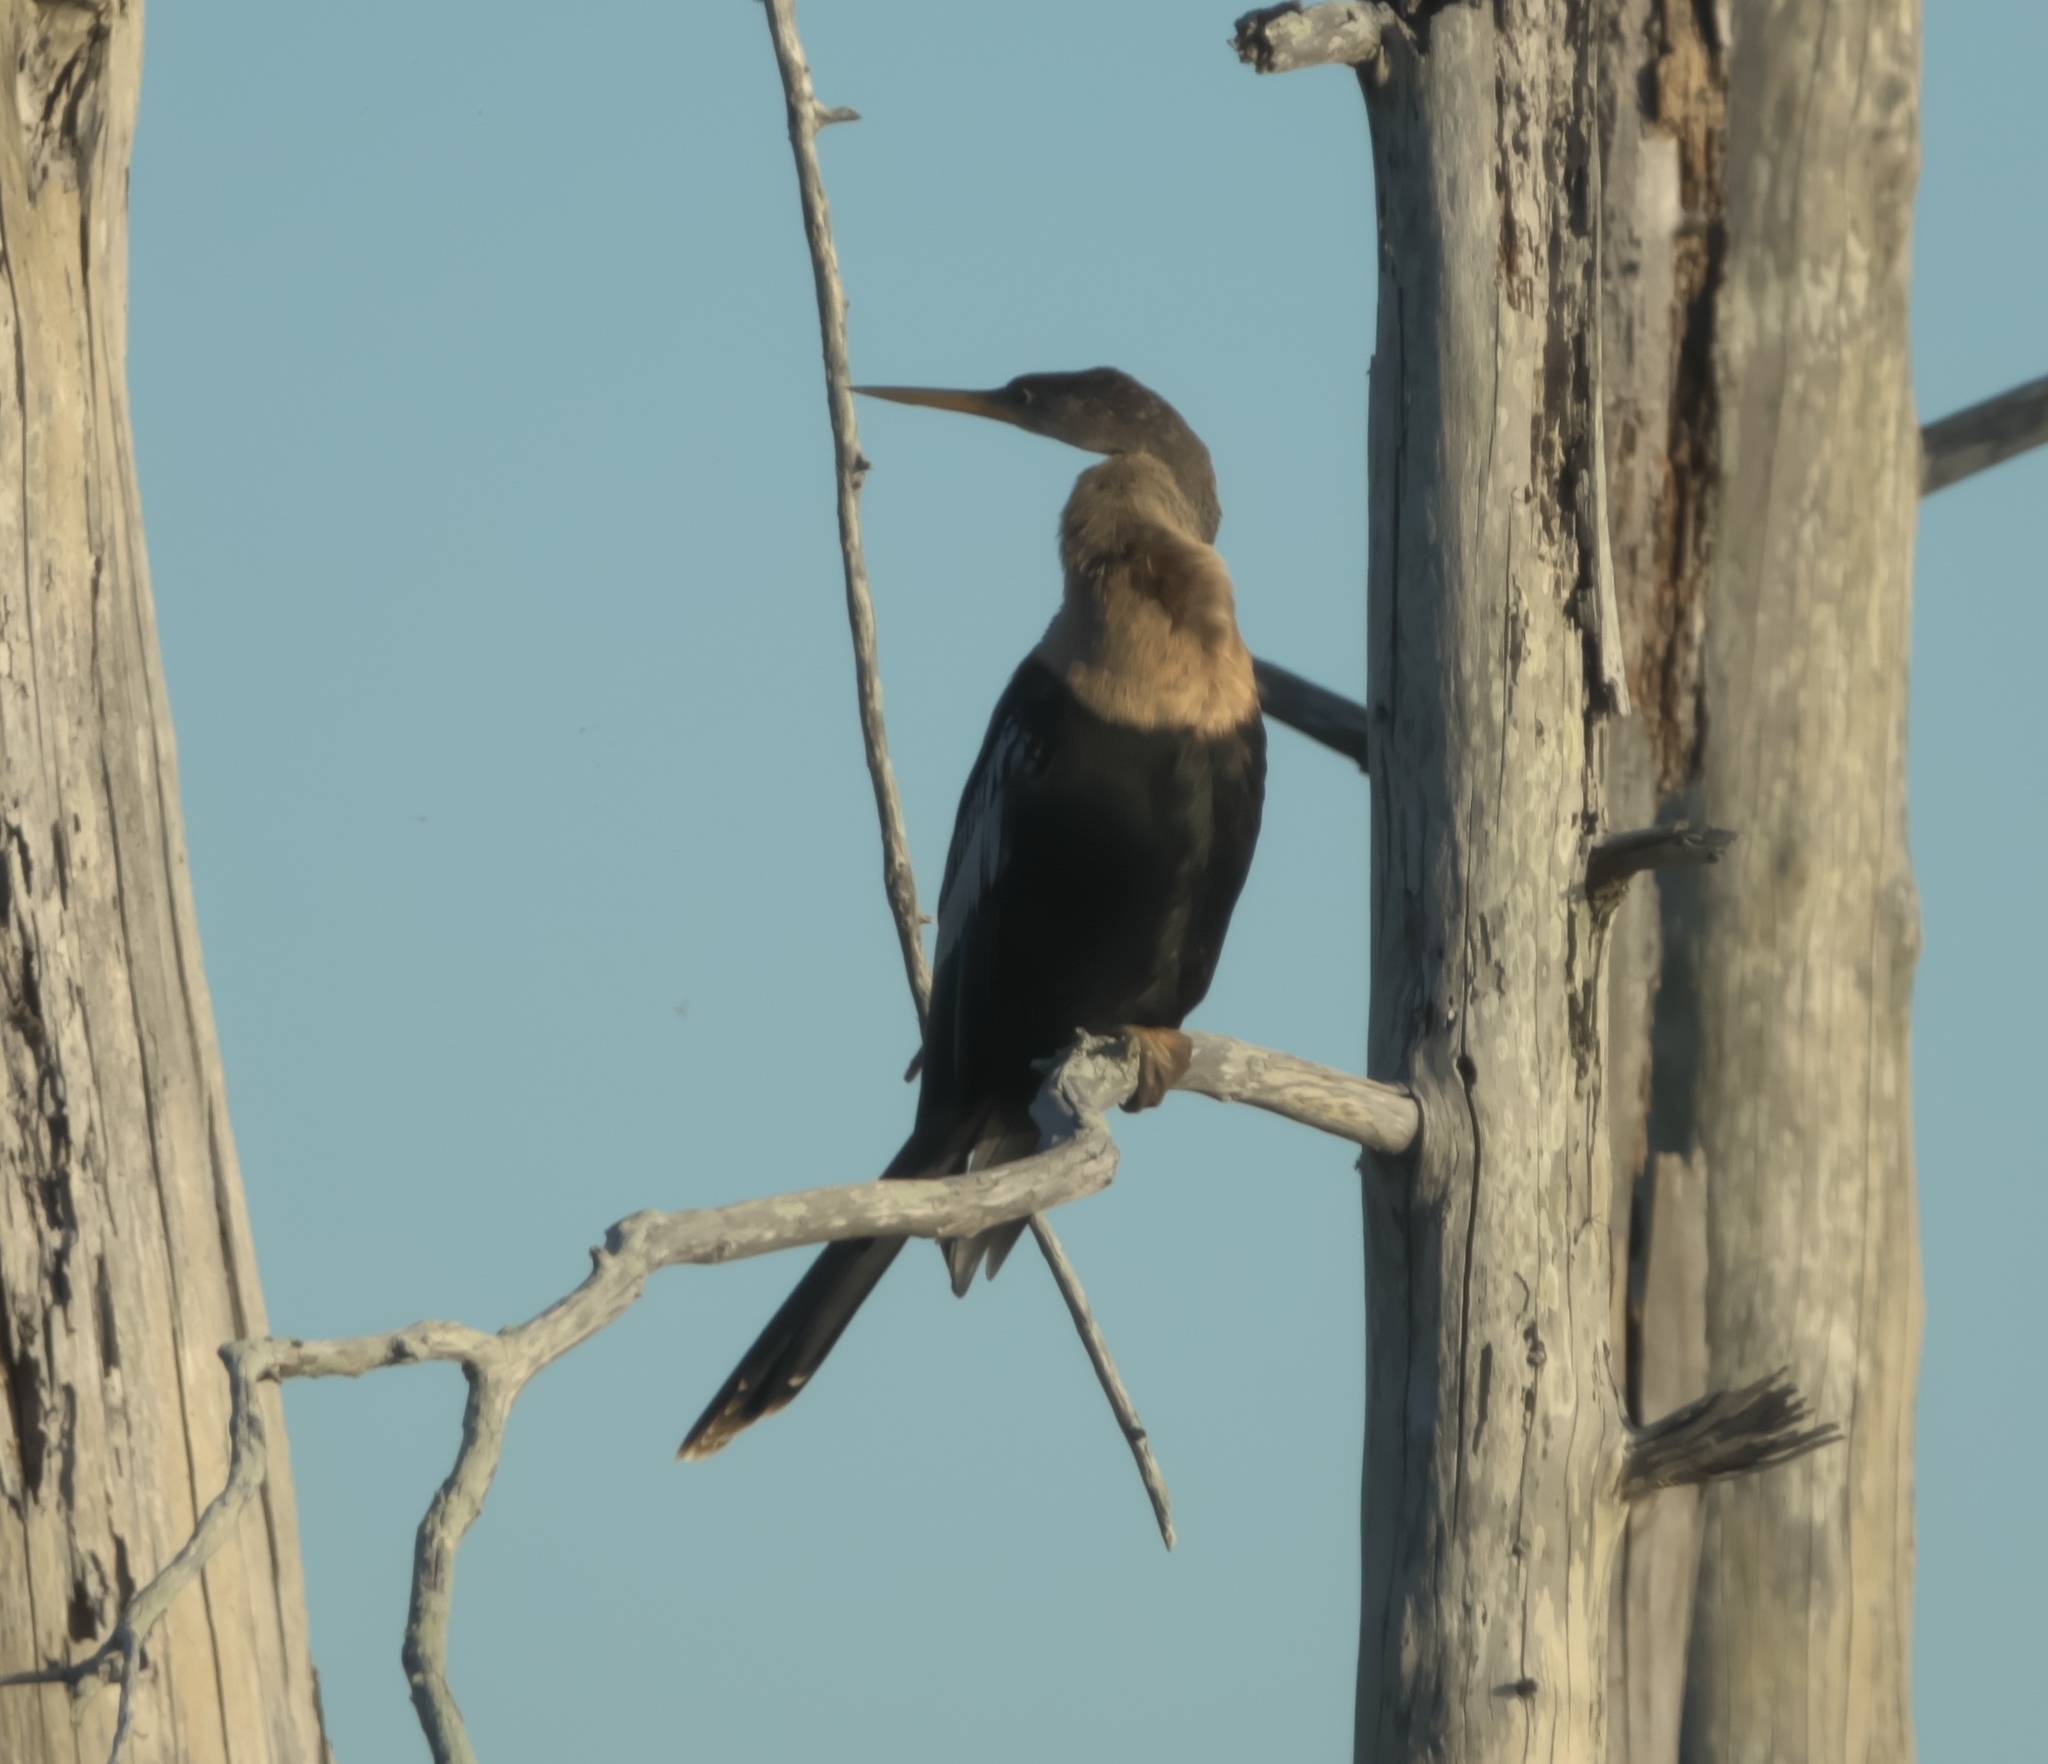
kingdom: Animalia
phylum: Chordata
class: Aves
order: Suliformes
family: Anhingidae
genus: Anhinga
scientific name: Anhinga anhinga
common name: Anhinga
